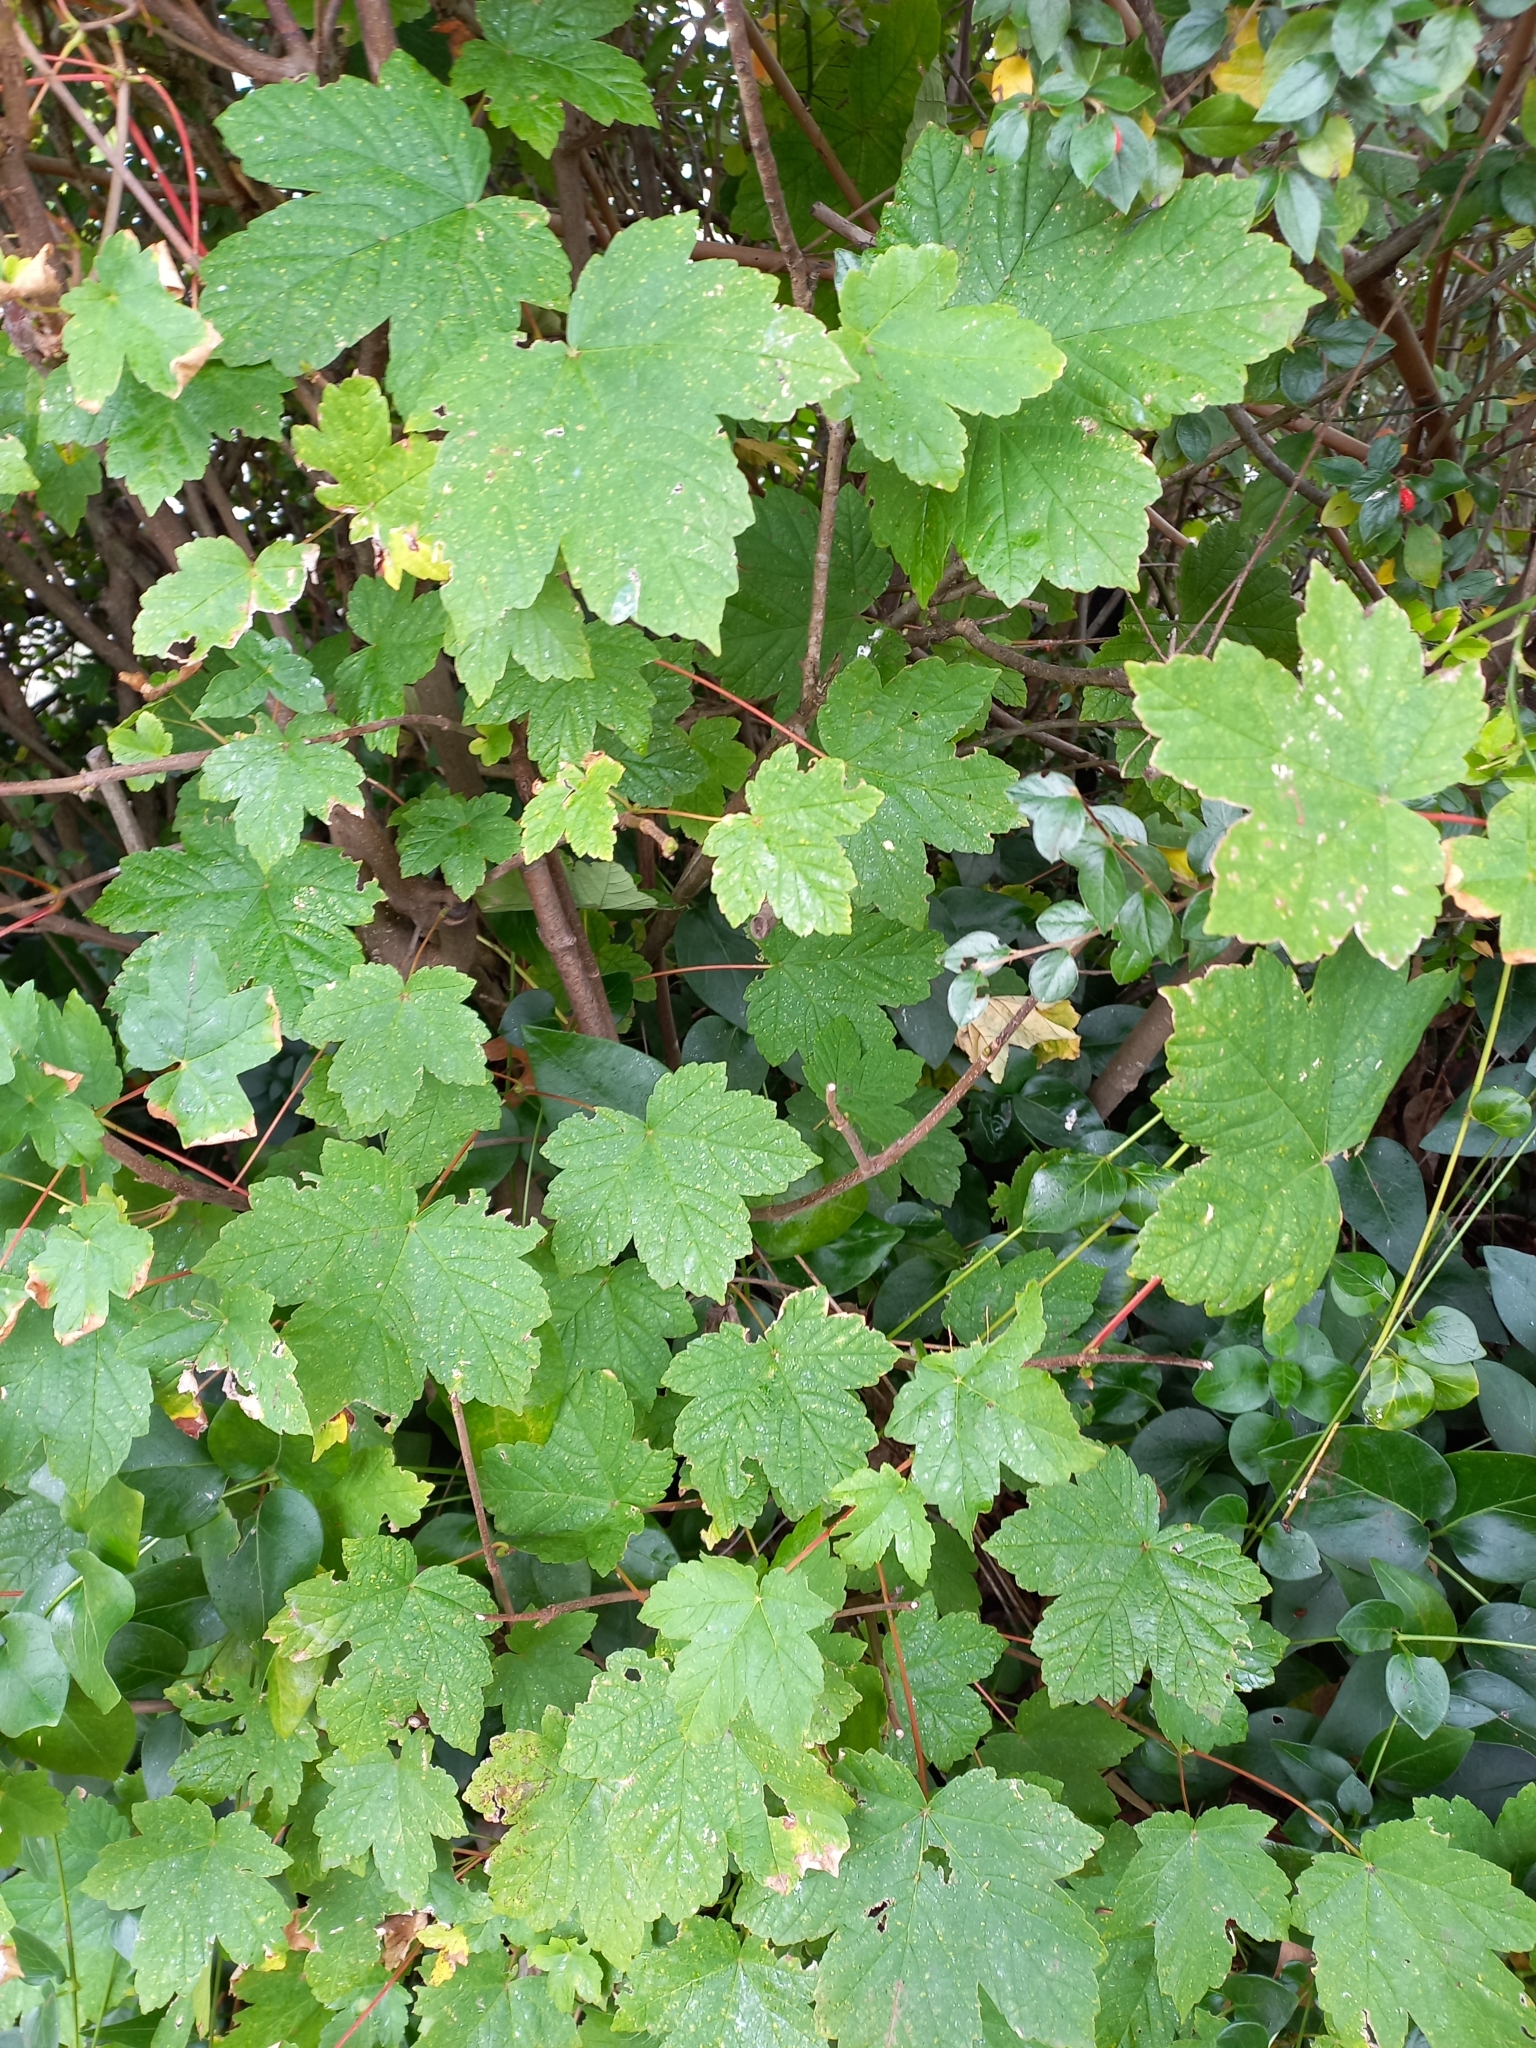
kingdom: Plantae
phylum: Tracheophyta
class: Magnoliopsida
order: Sapindales
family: Sapindaceae
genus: Acer
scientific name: Acer pseudoplatanus
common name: Sycamore
